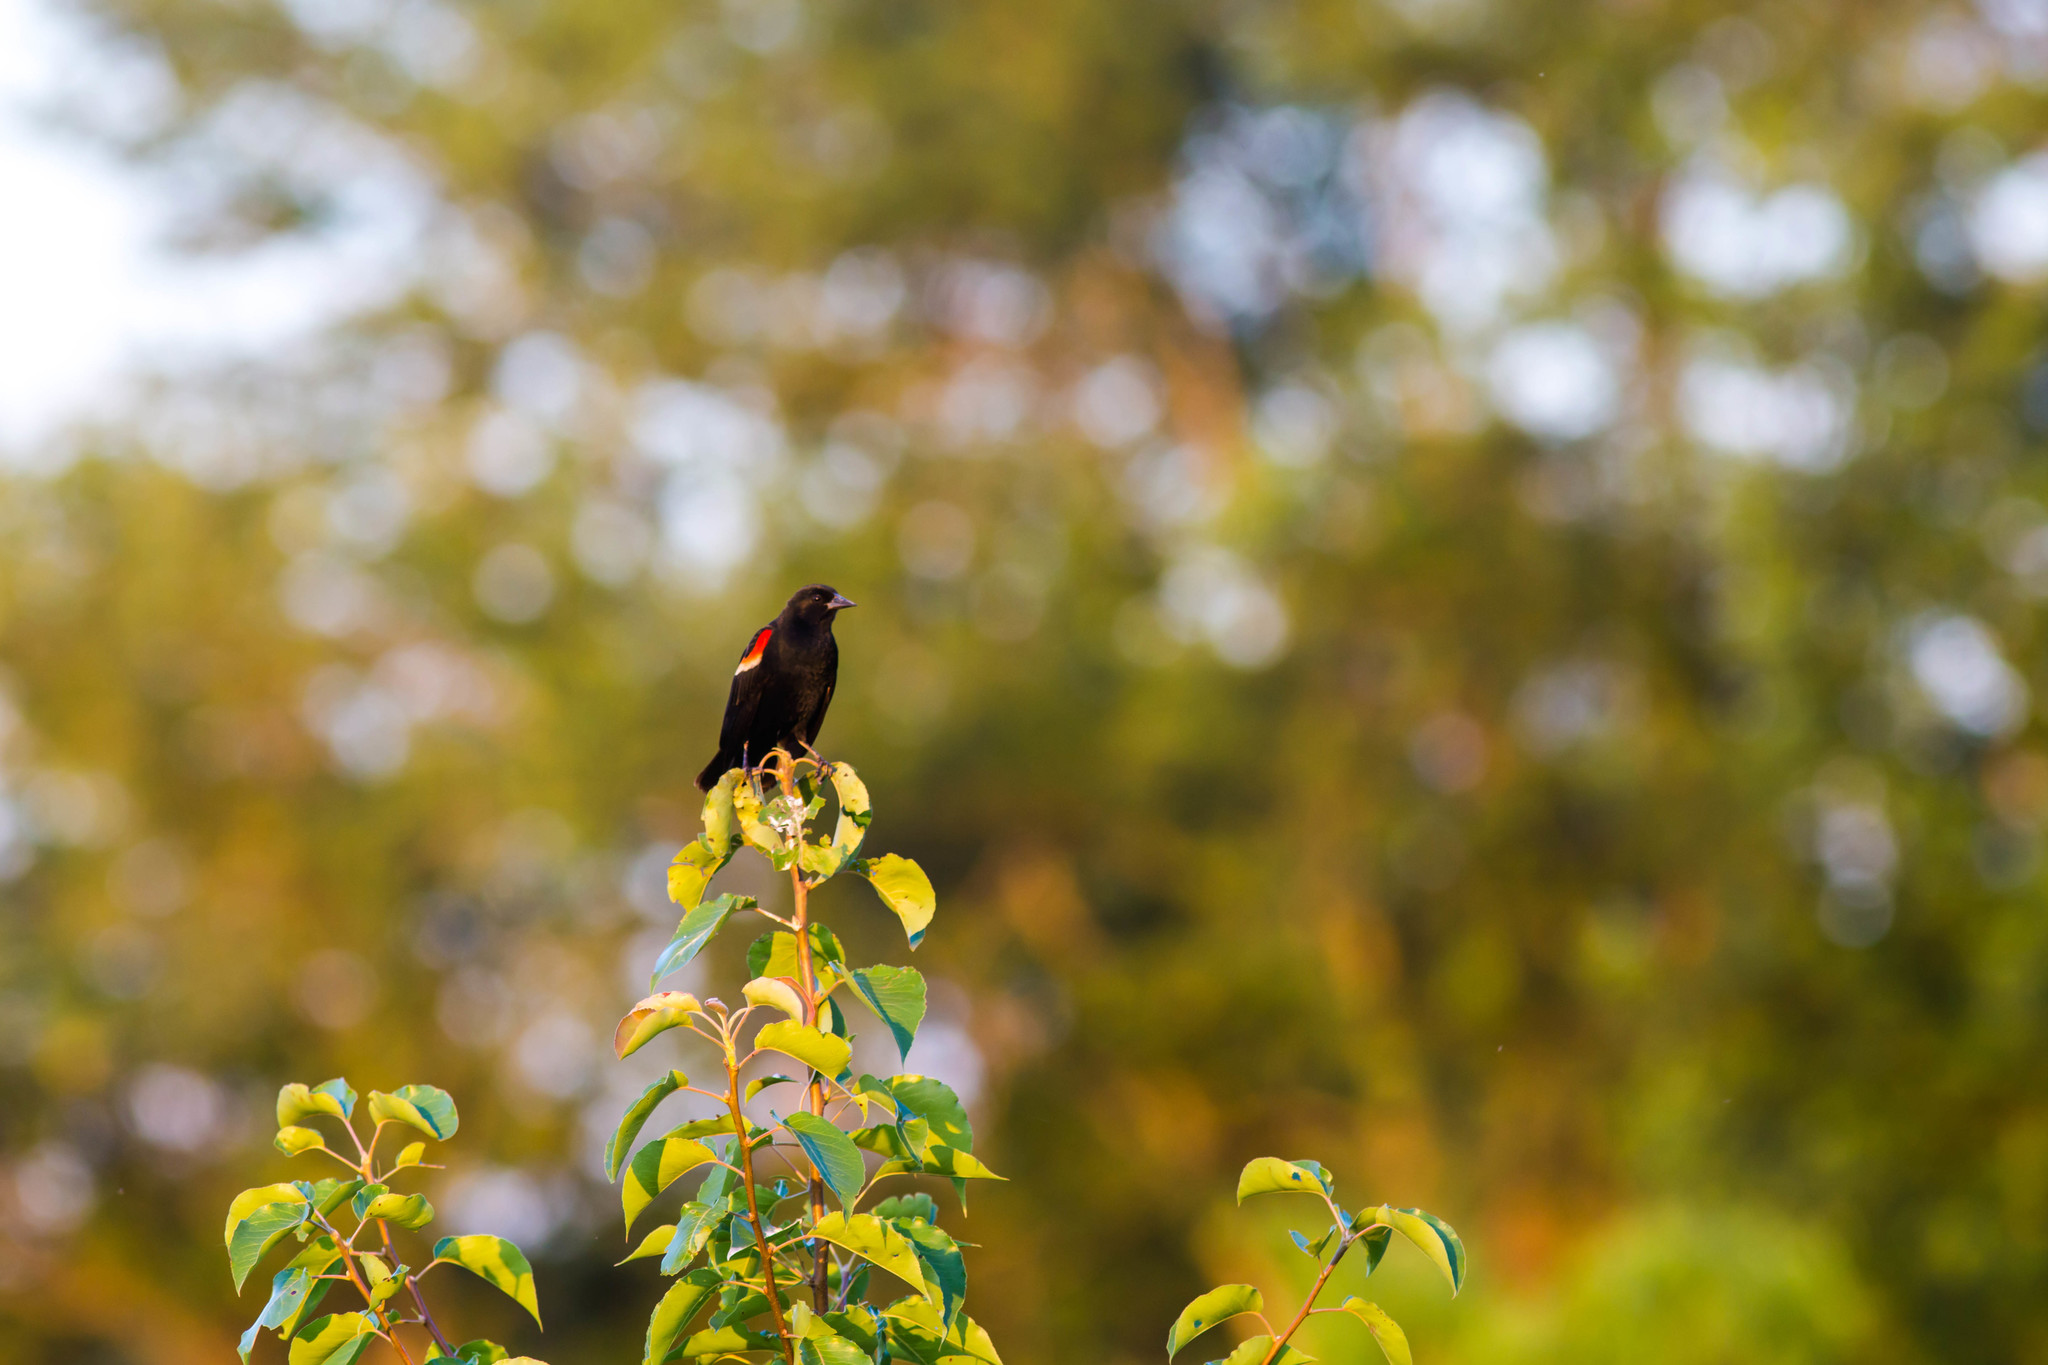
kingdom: Animalia
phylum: Chordata
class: Aves
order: Passeriformes
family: Icteridae
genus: Agelaius
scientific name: Agelaius phoeniceus
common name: Red-winged blackbird
